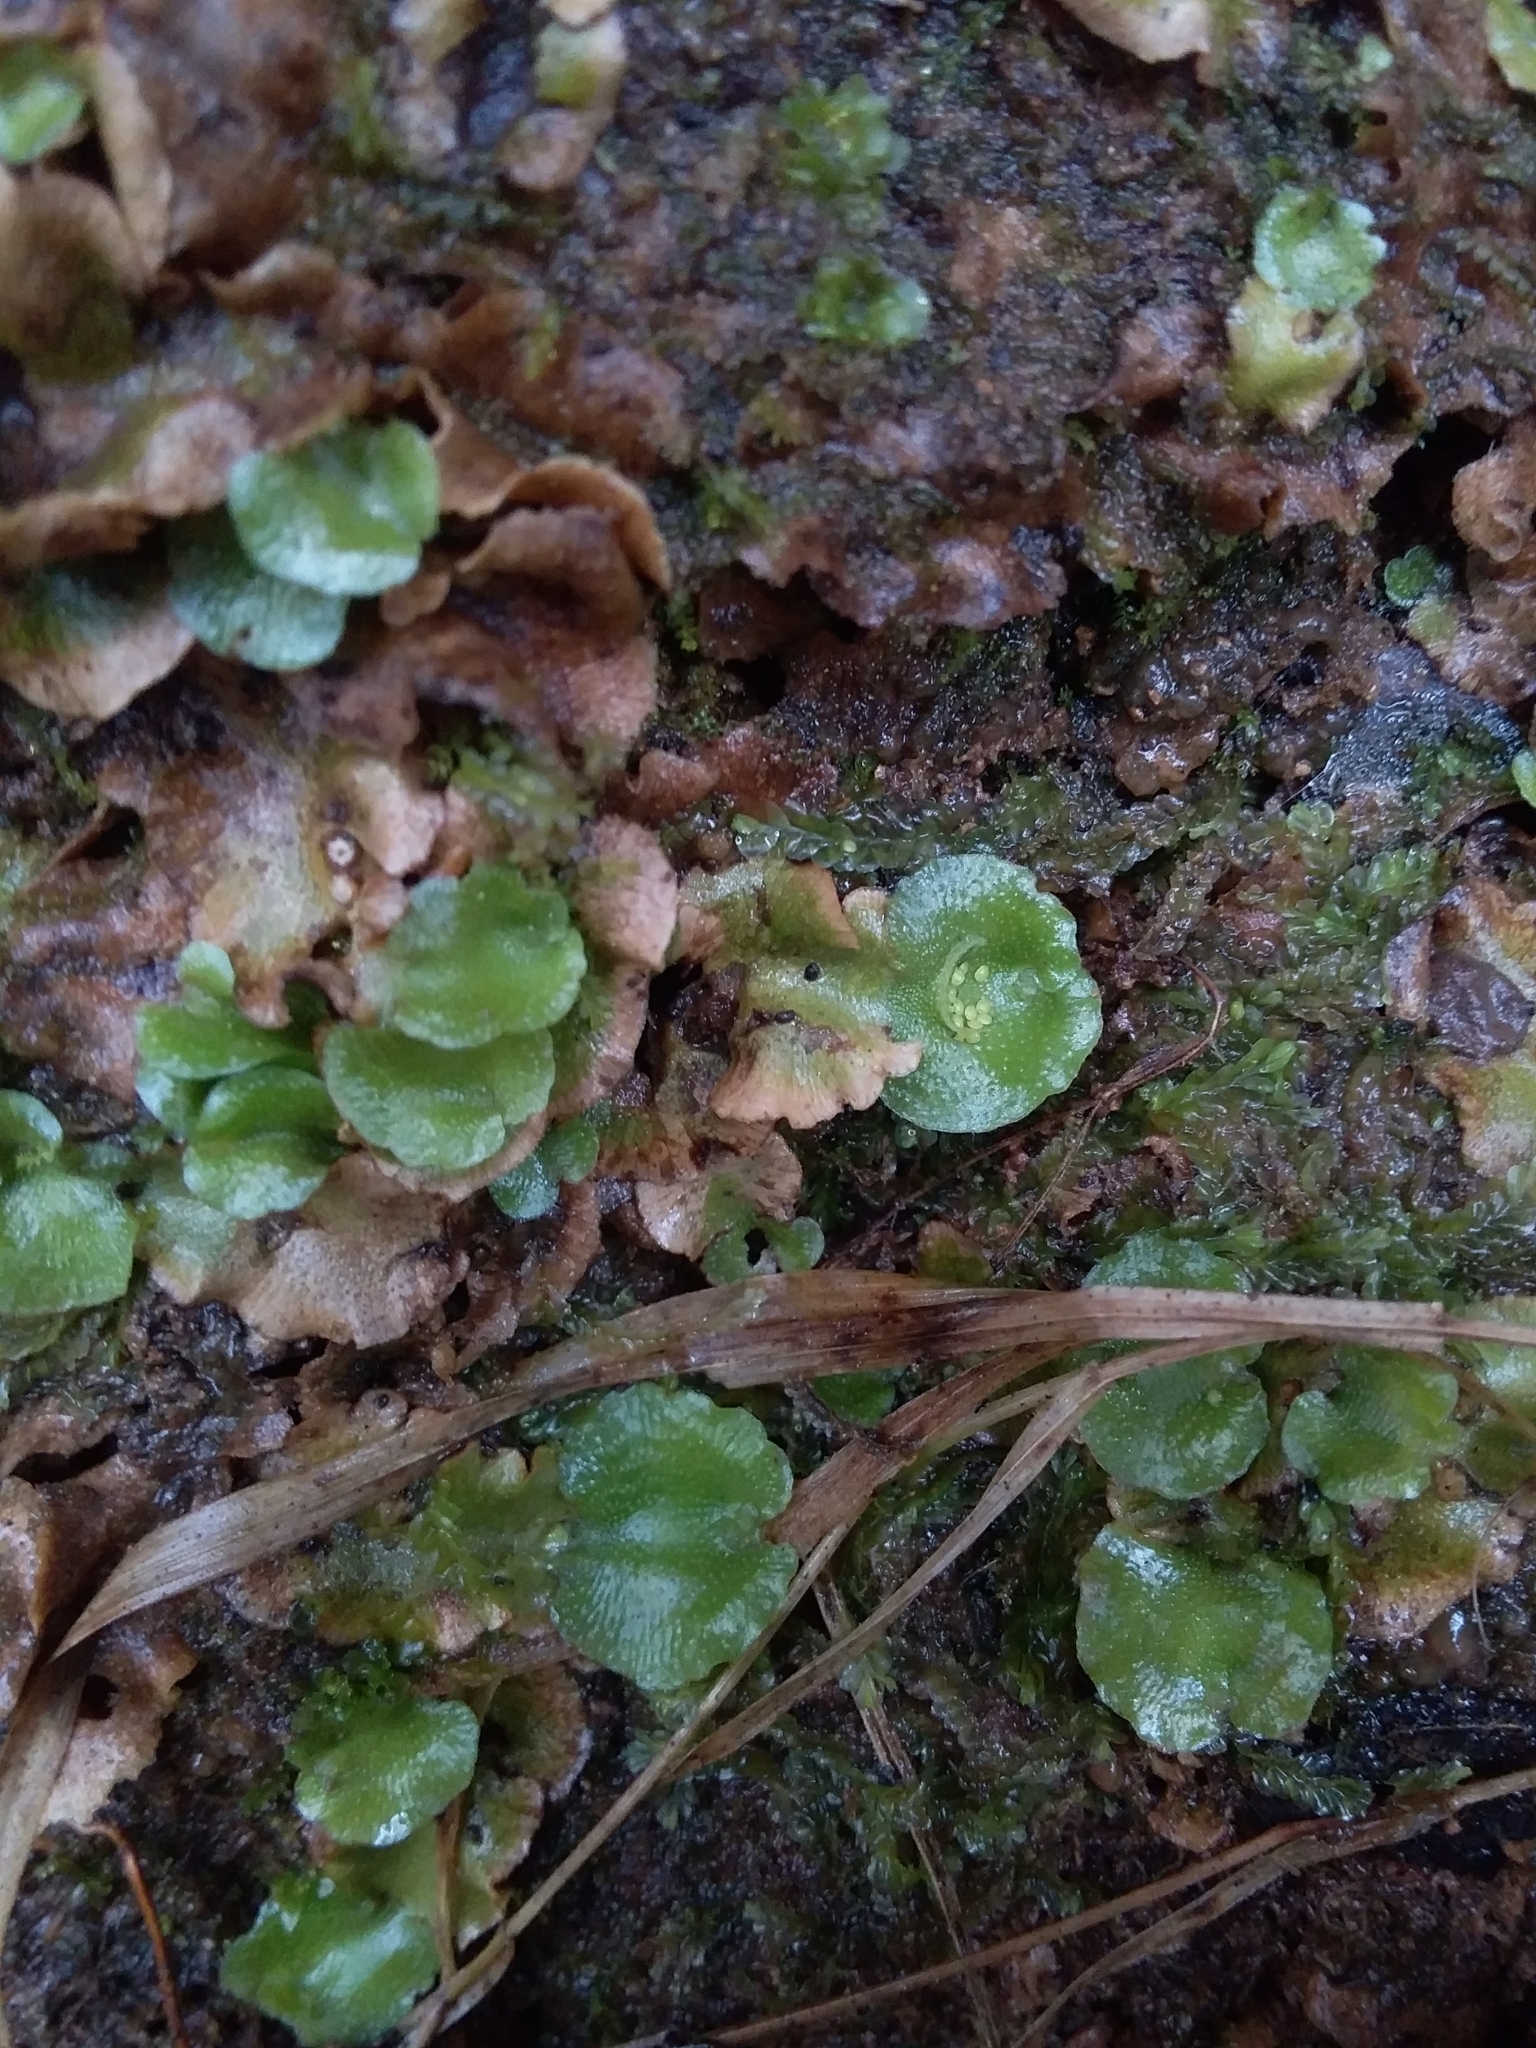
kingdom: Plantae
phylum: Marchantiophyta
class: Marchantiopsida
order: Lunulariales
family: Lunulariaceae
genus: Lunularia
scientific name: Lunularia cruciata
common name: Crescent-cup liverwort
